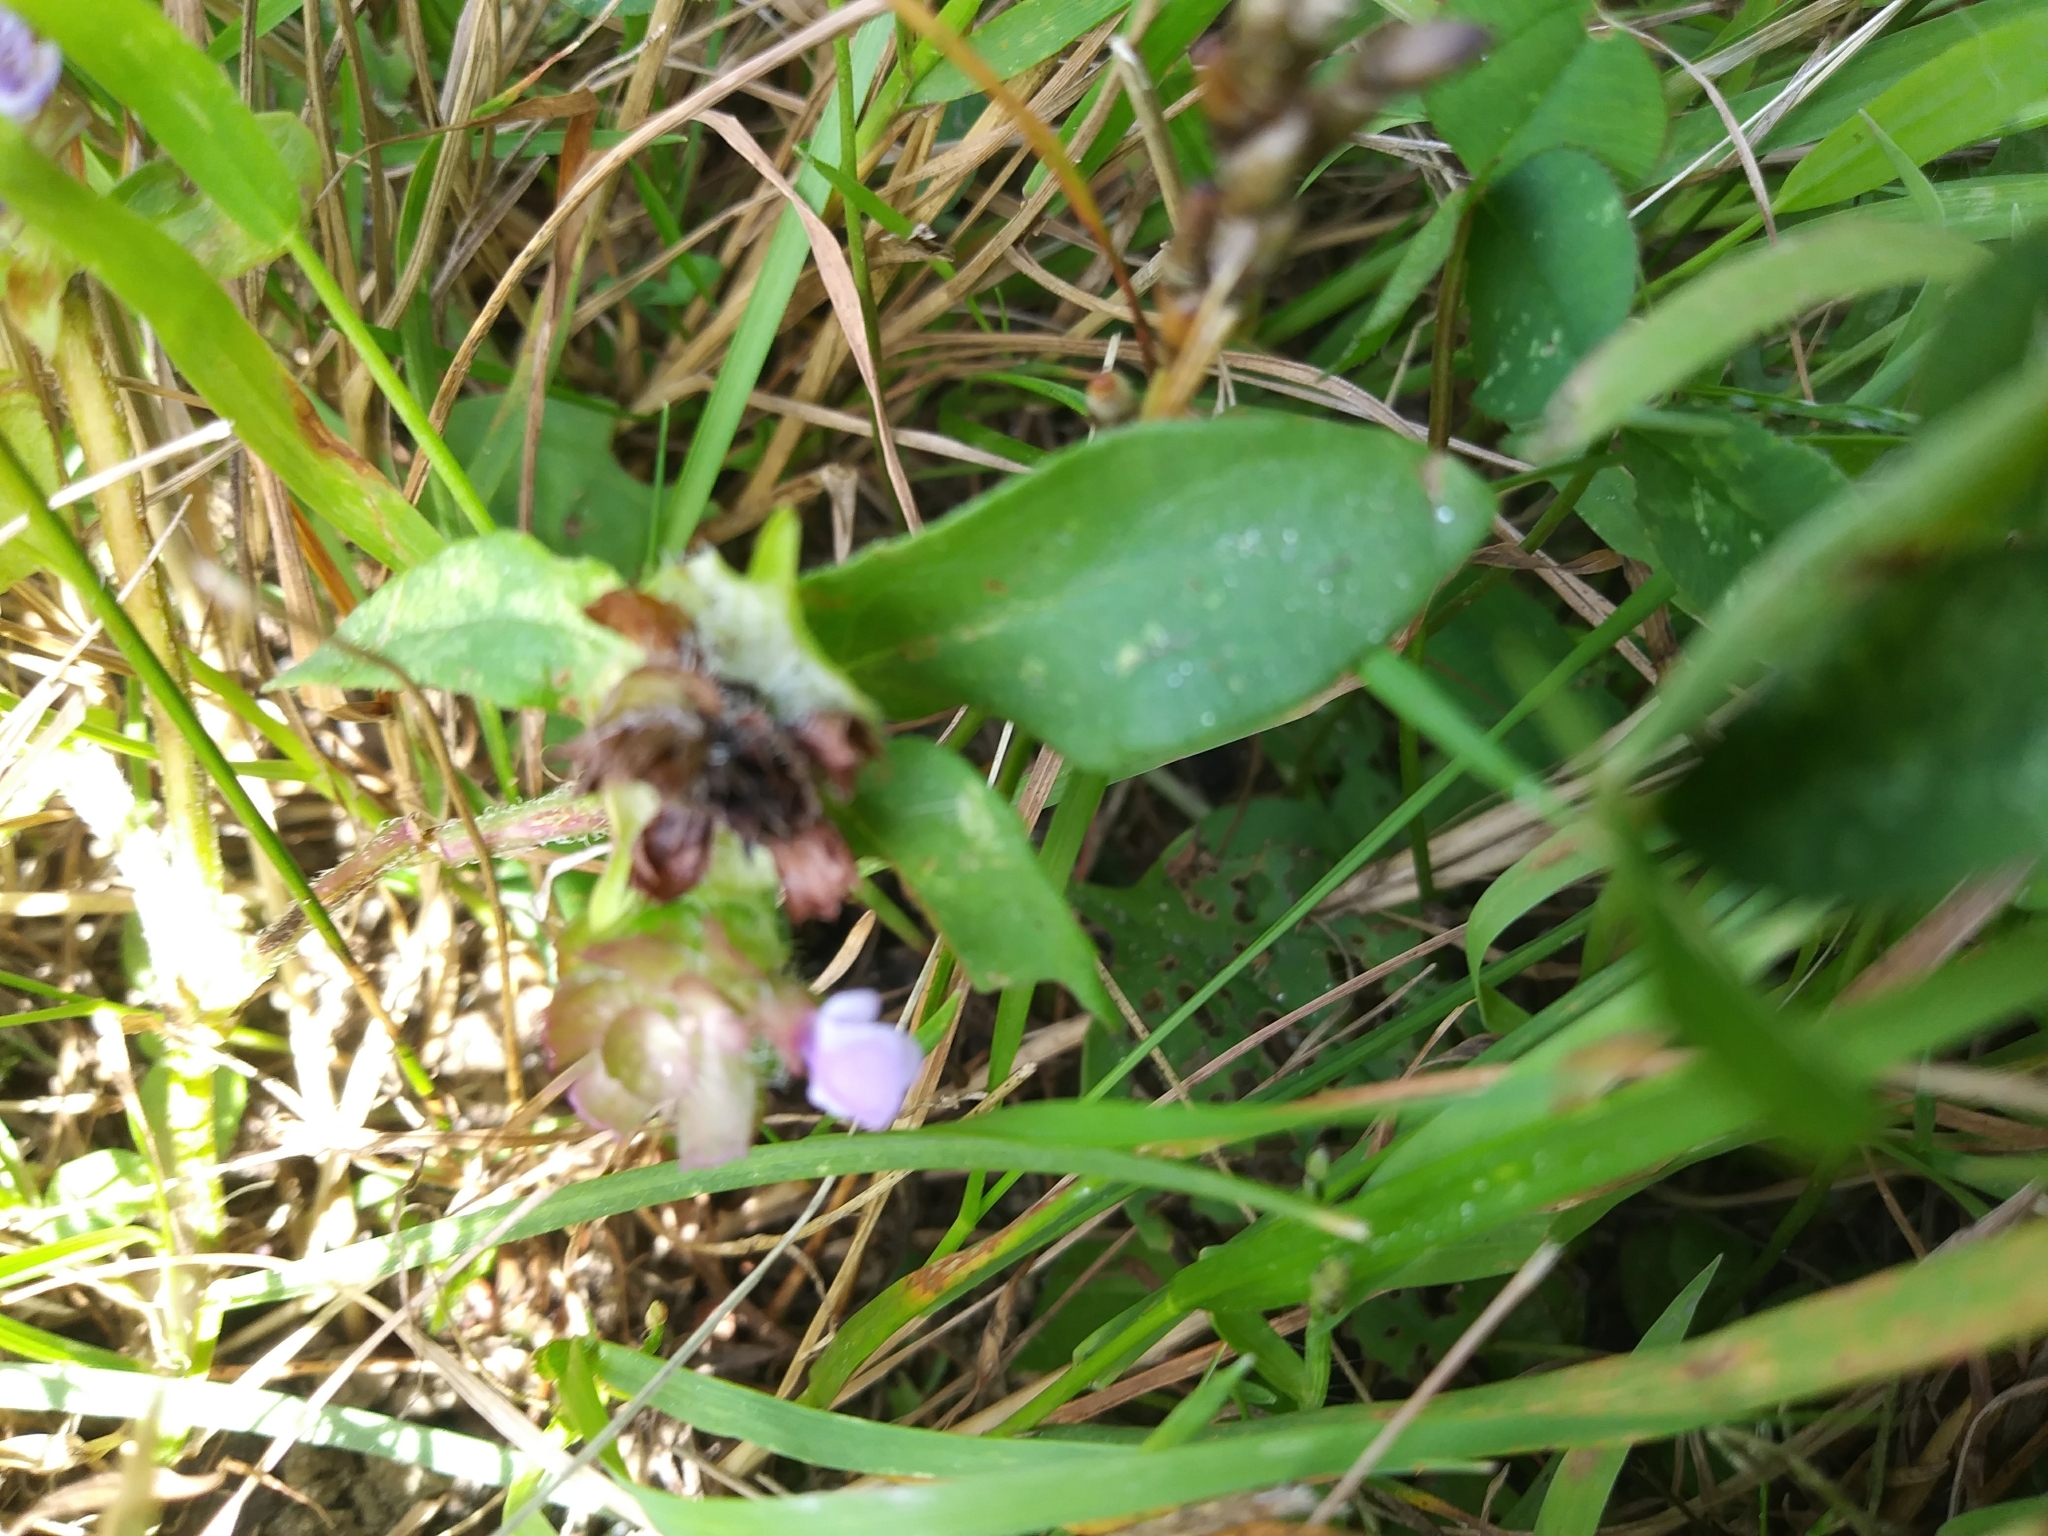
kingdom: Plantae
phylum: Tracheophyta
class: Magnoliopsida
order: Lamiales
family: Lamiaceae
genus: Prunella
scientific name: Prunella vulgaris
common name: Heal-all
